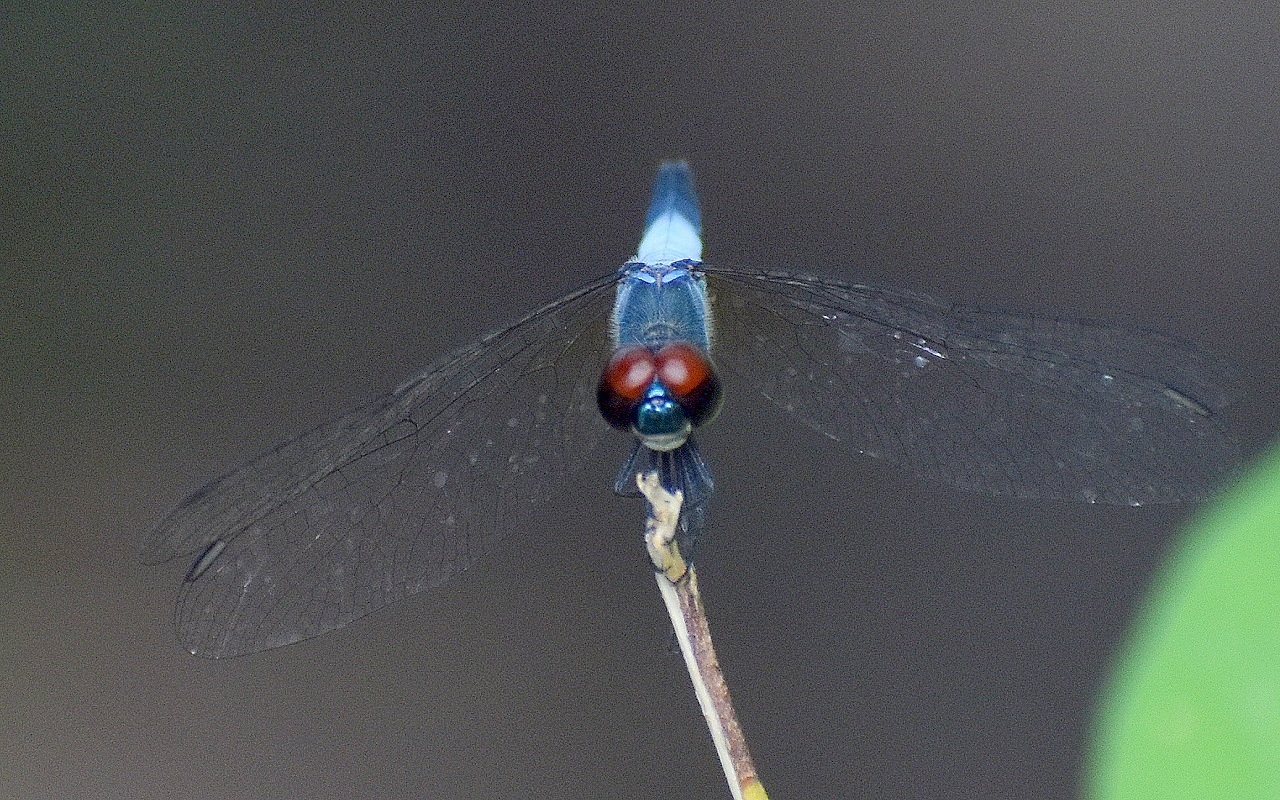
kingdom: Animalia
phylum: Arthropoda
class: Insecta
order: Odonata
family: Libellulidae
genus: Brachydiplax
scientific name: Brachydiplax sobrina
